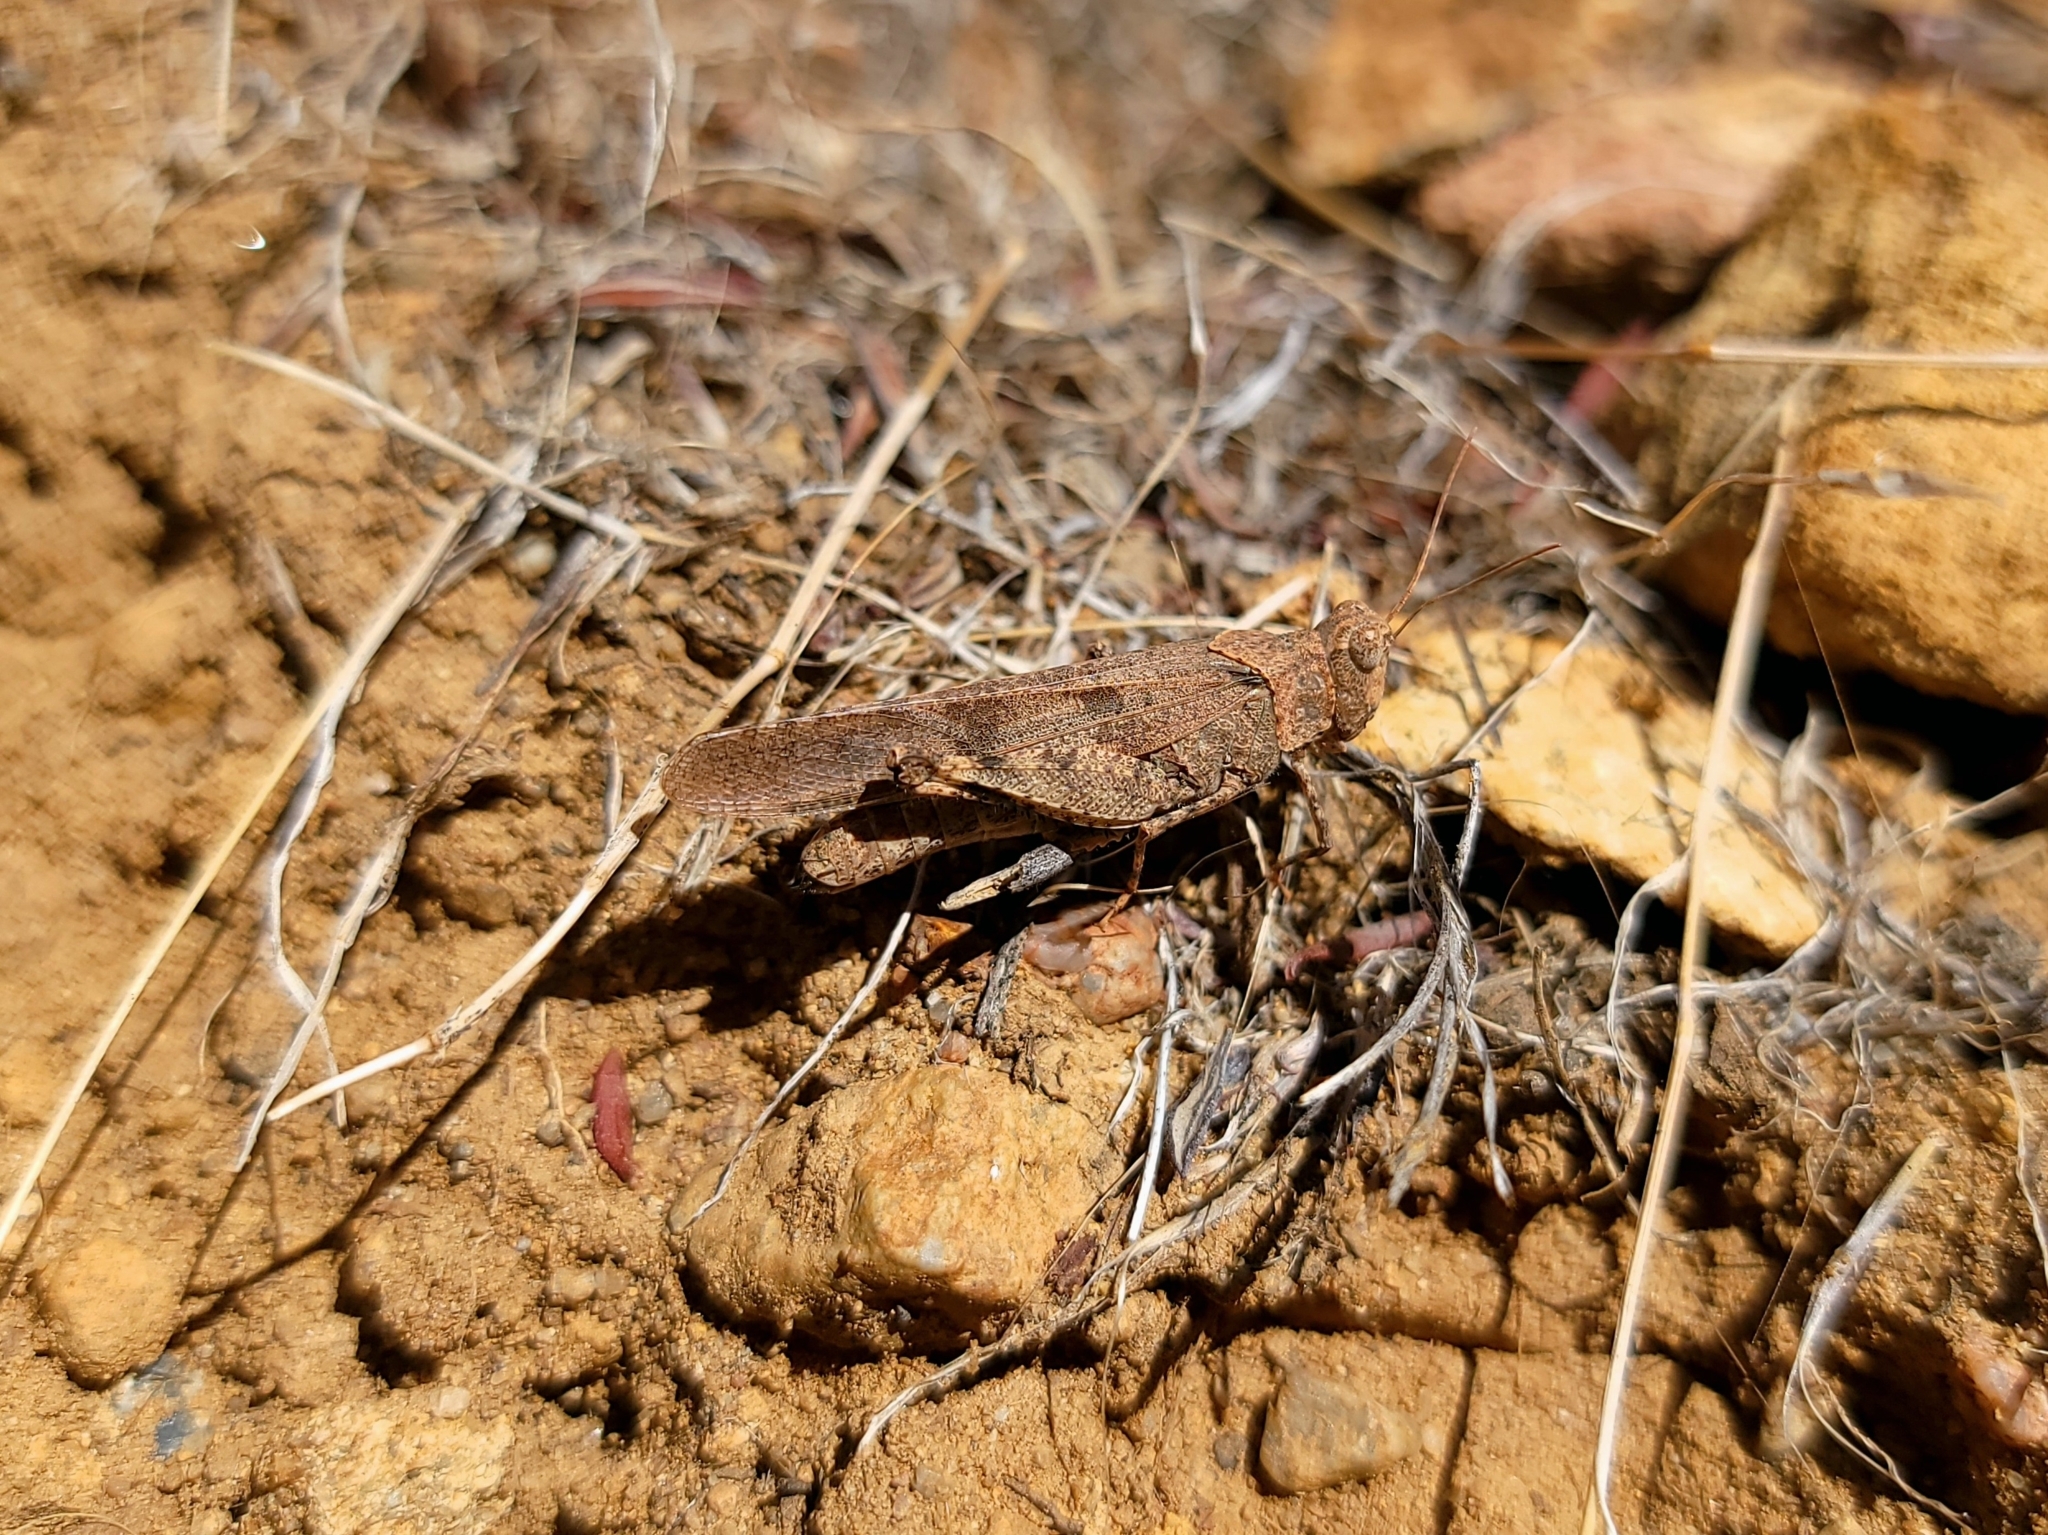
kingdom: Animalia
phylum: Arthropoda
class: Insecta
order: Orthoptera
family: Acrididae
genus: Trimerotropis
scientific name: Trimerotropis thalassica
